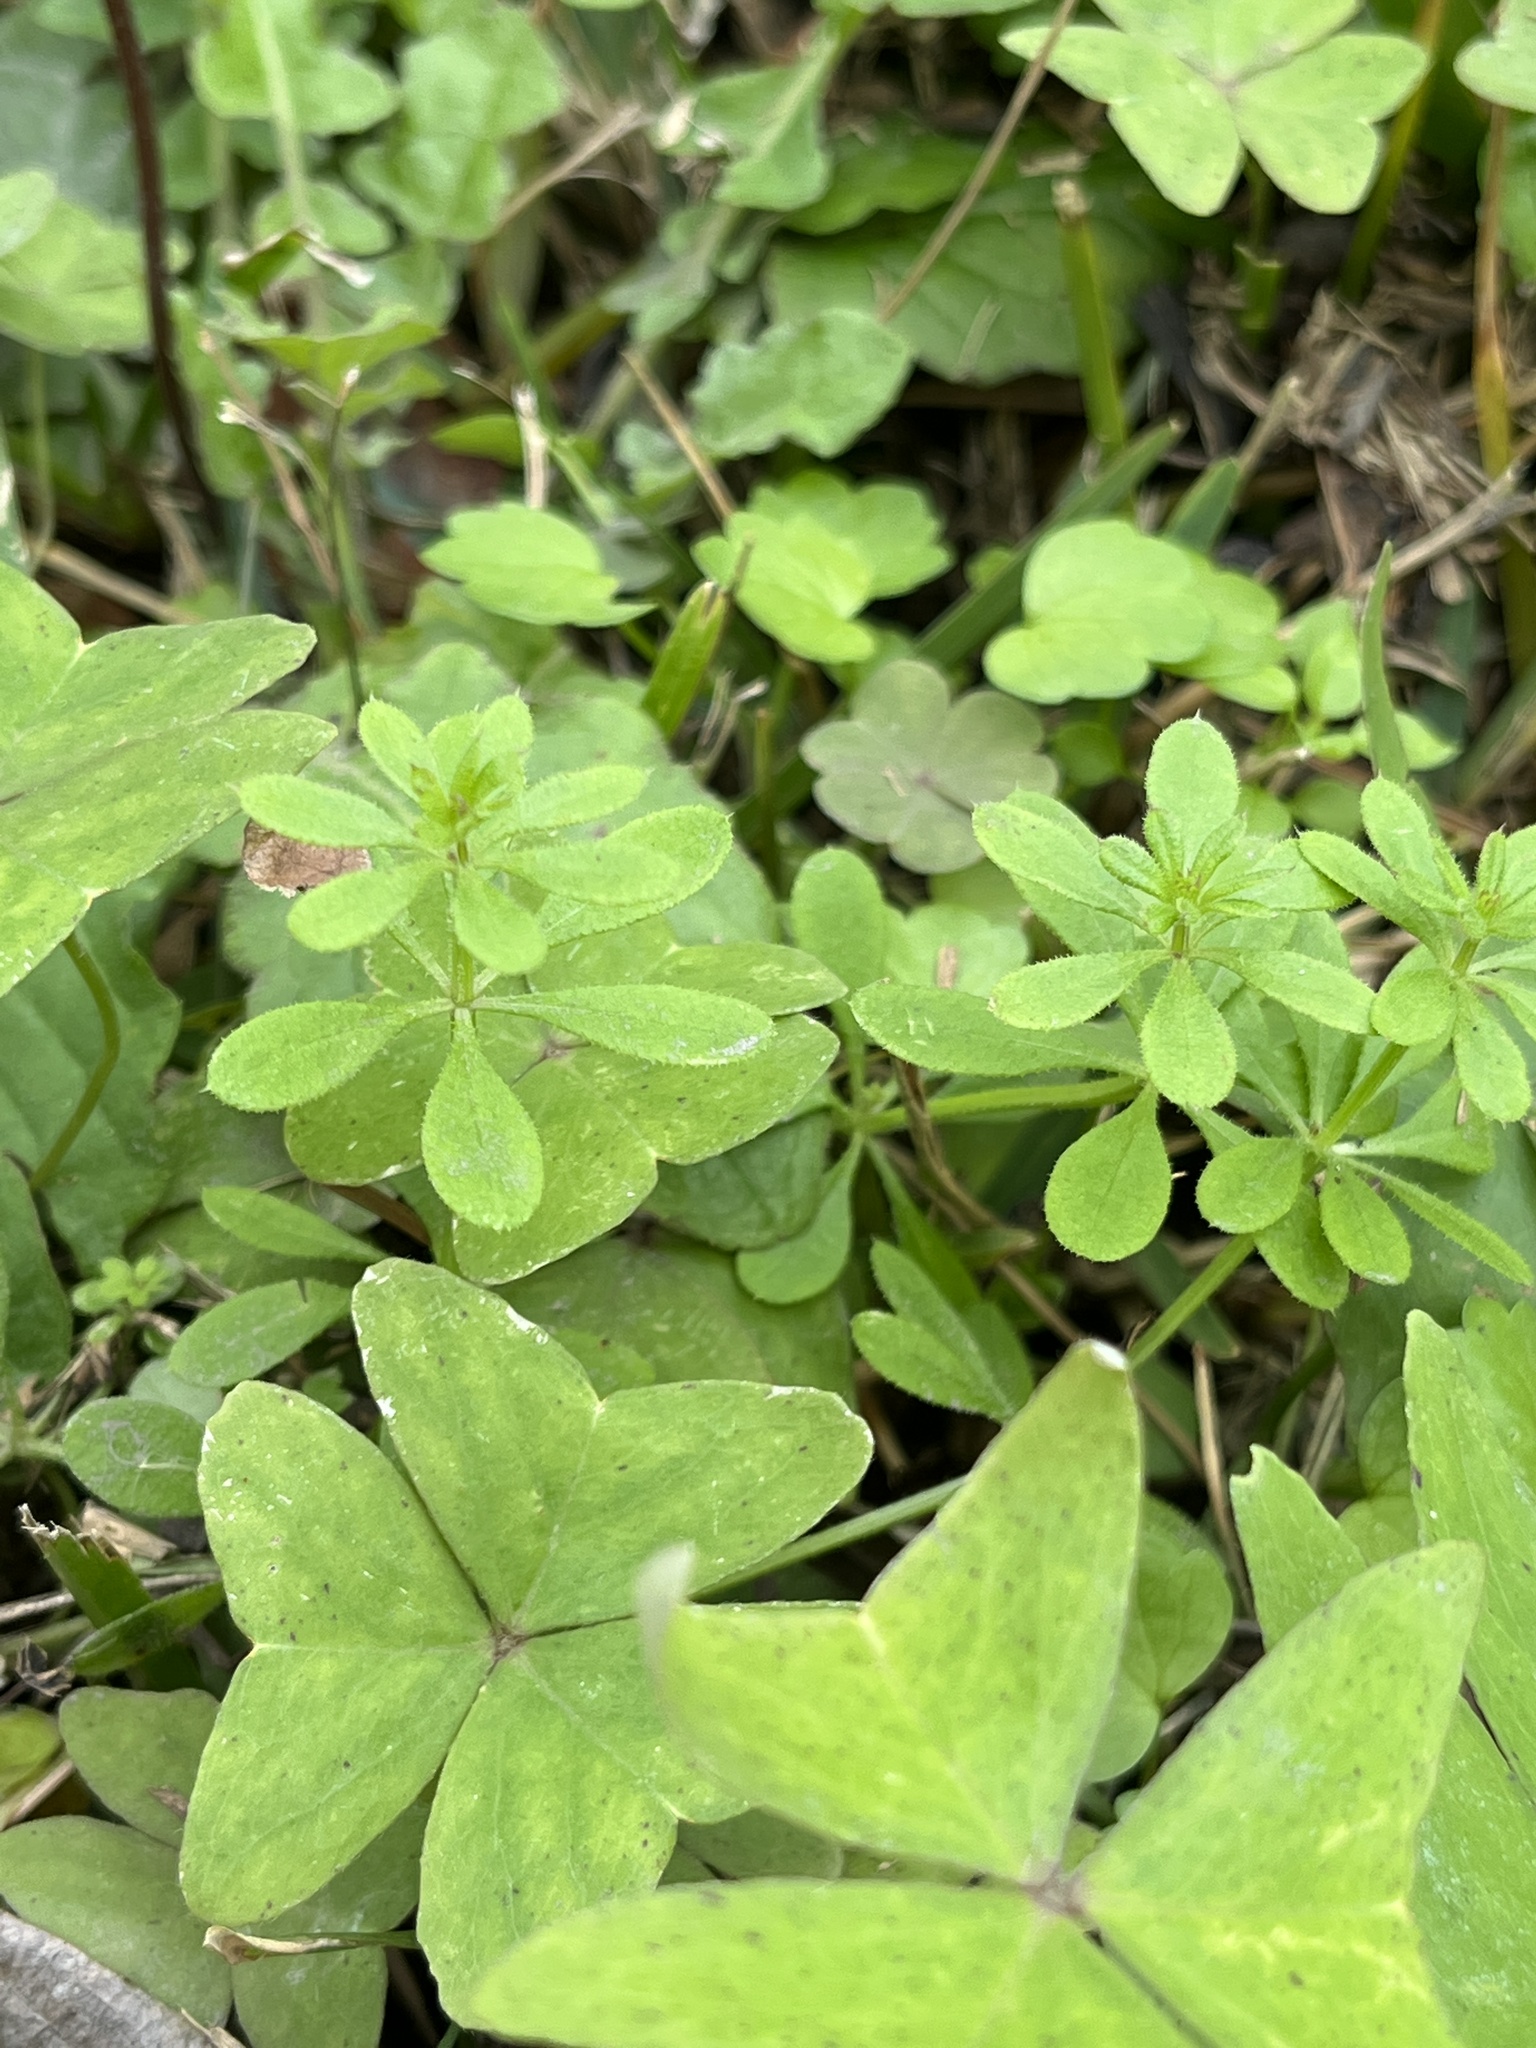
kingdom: Plantae
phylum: Tracheophyta
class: Magnoliopsida
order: Gentianales
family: Rubiaceae
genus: Galium
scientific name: Galium aparine
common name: Cleavers
